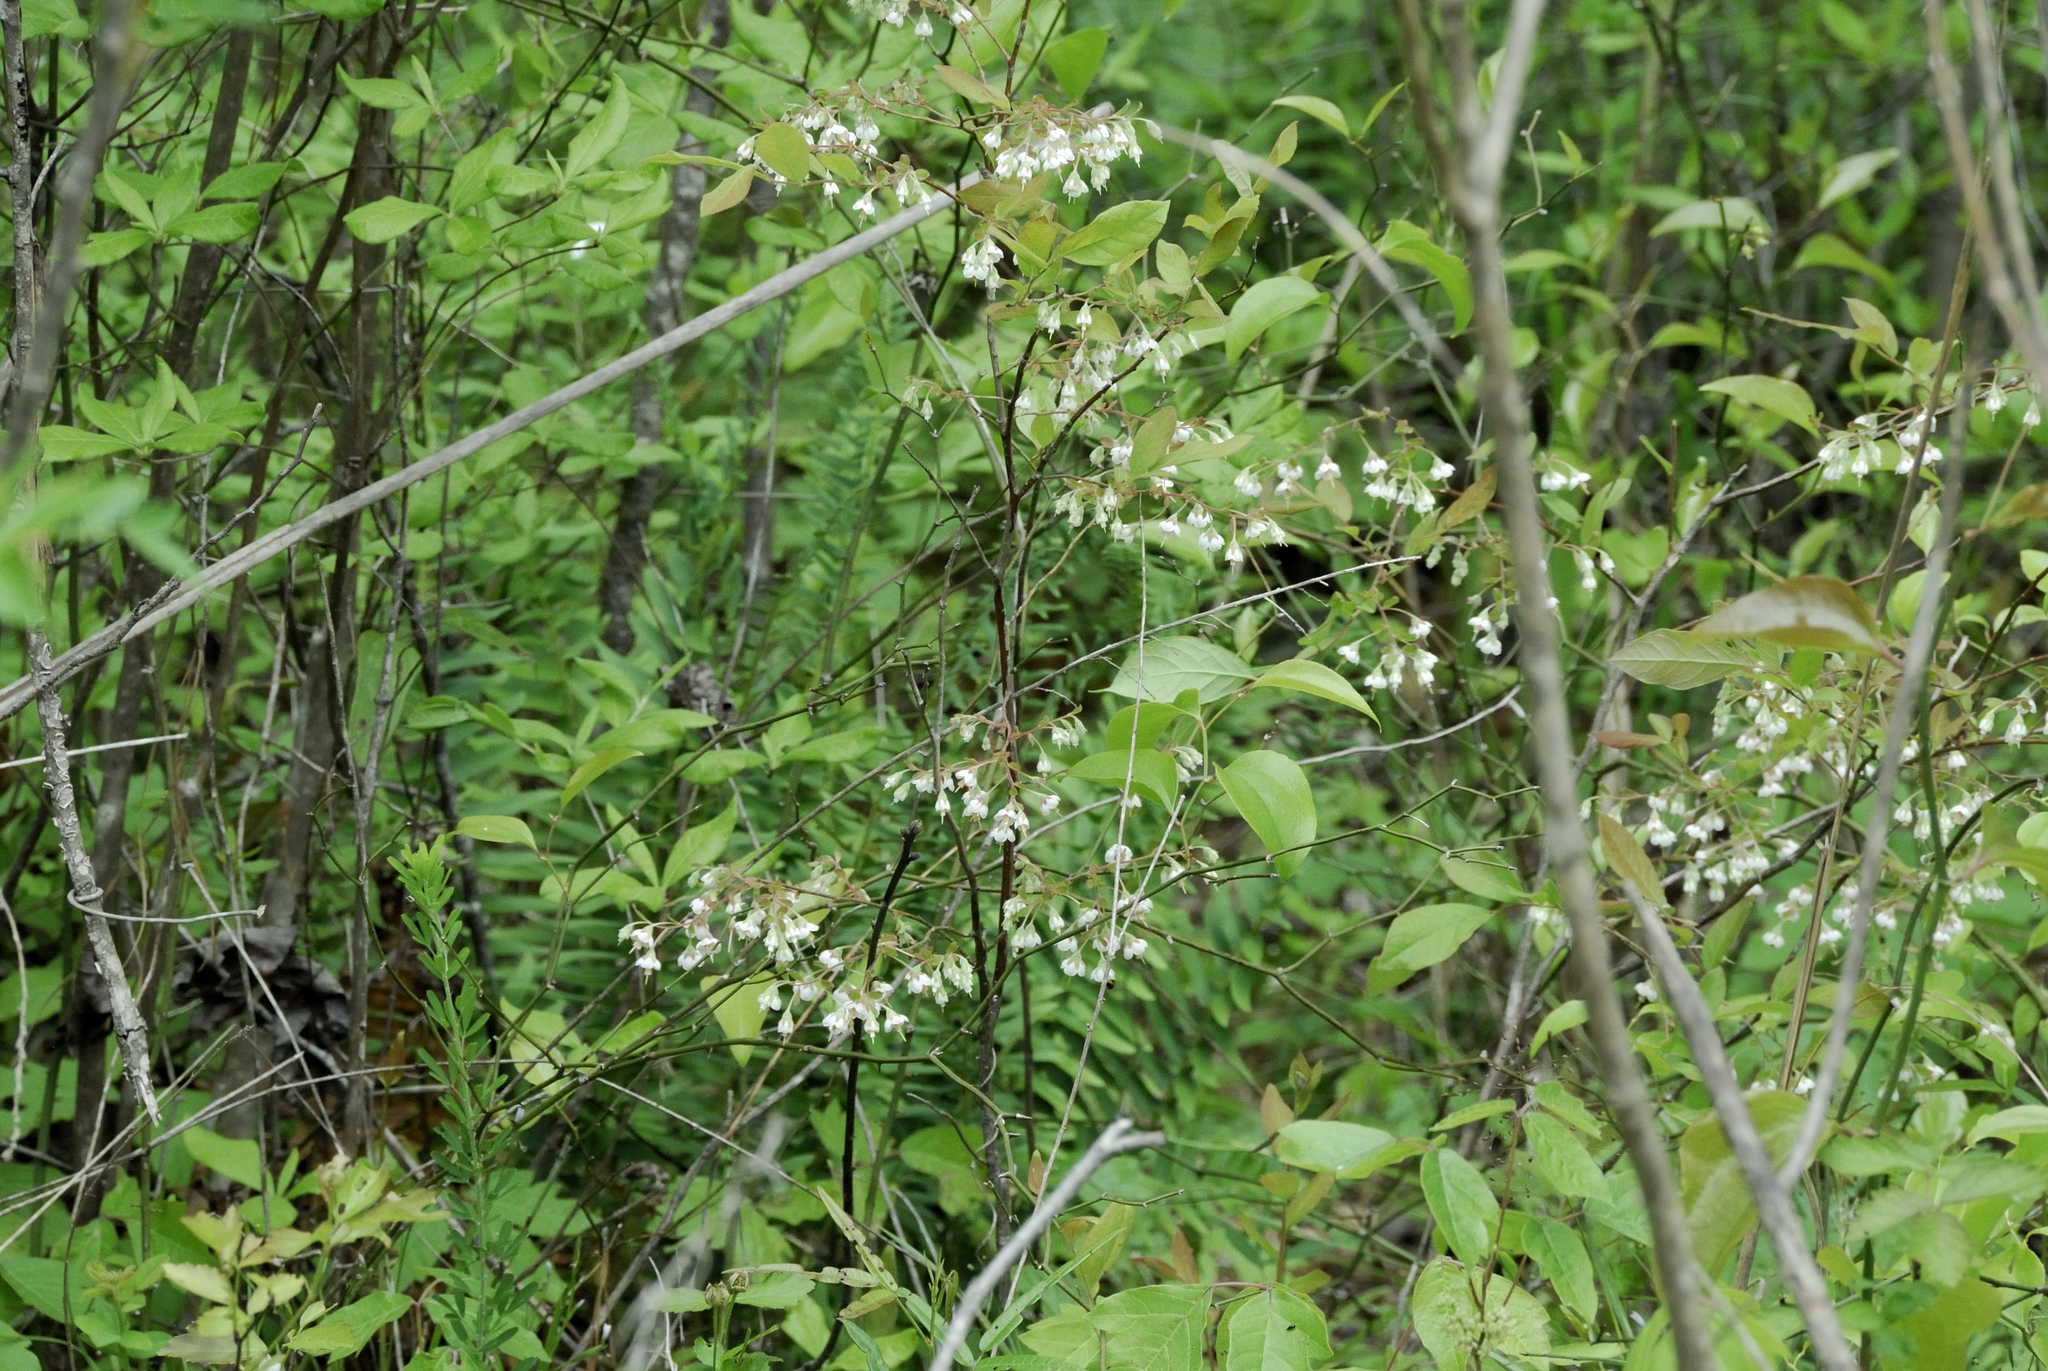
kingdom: Plantae
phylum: Tracheophyta
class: Magnoliopsida
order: Ericales
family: Ericaceae
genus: Vaccinium
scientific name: Vaccinium stamineum
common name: Deerberry
